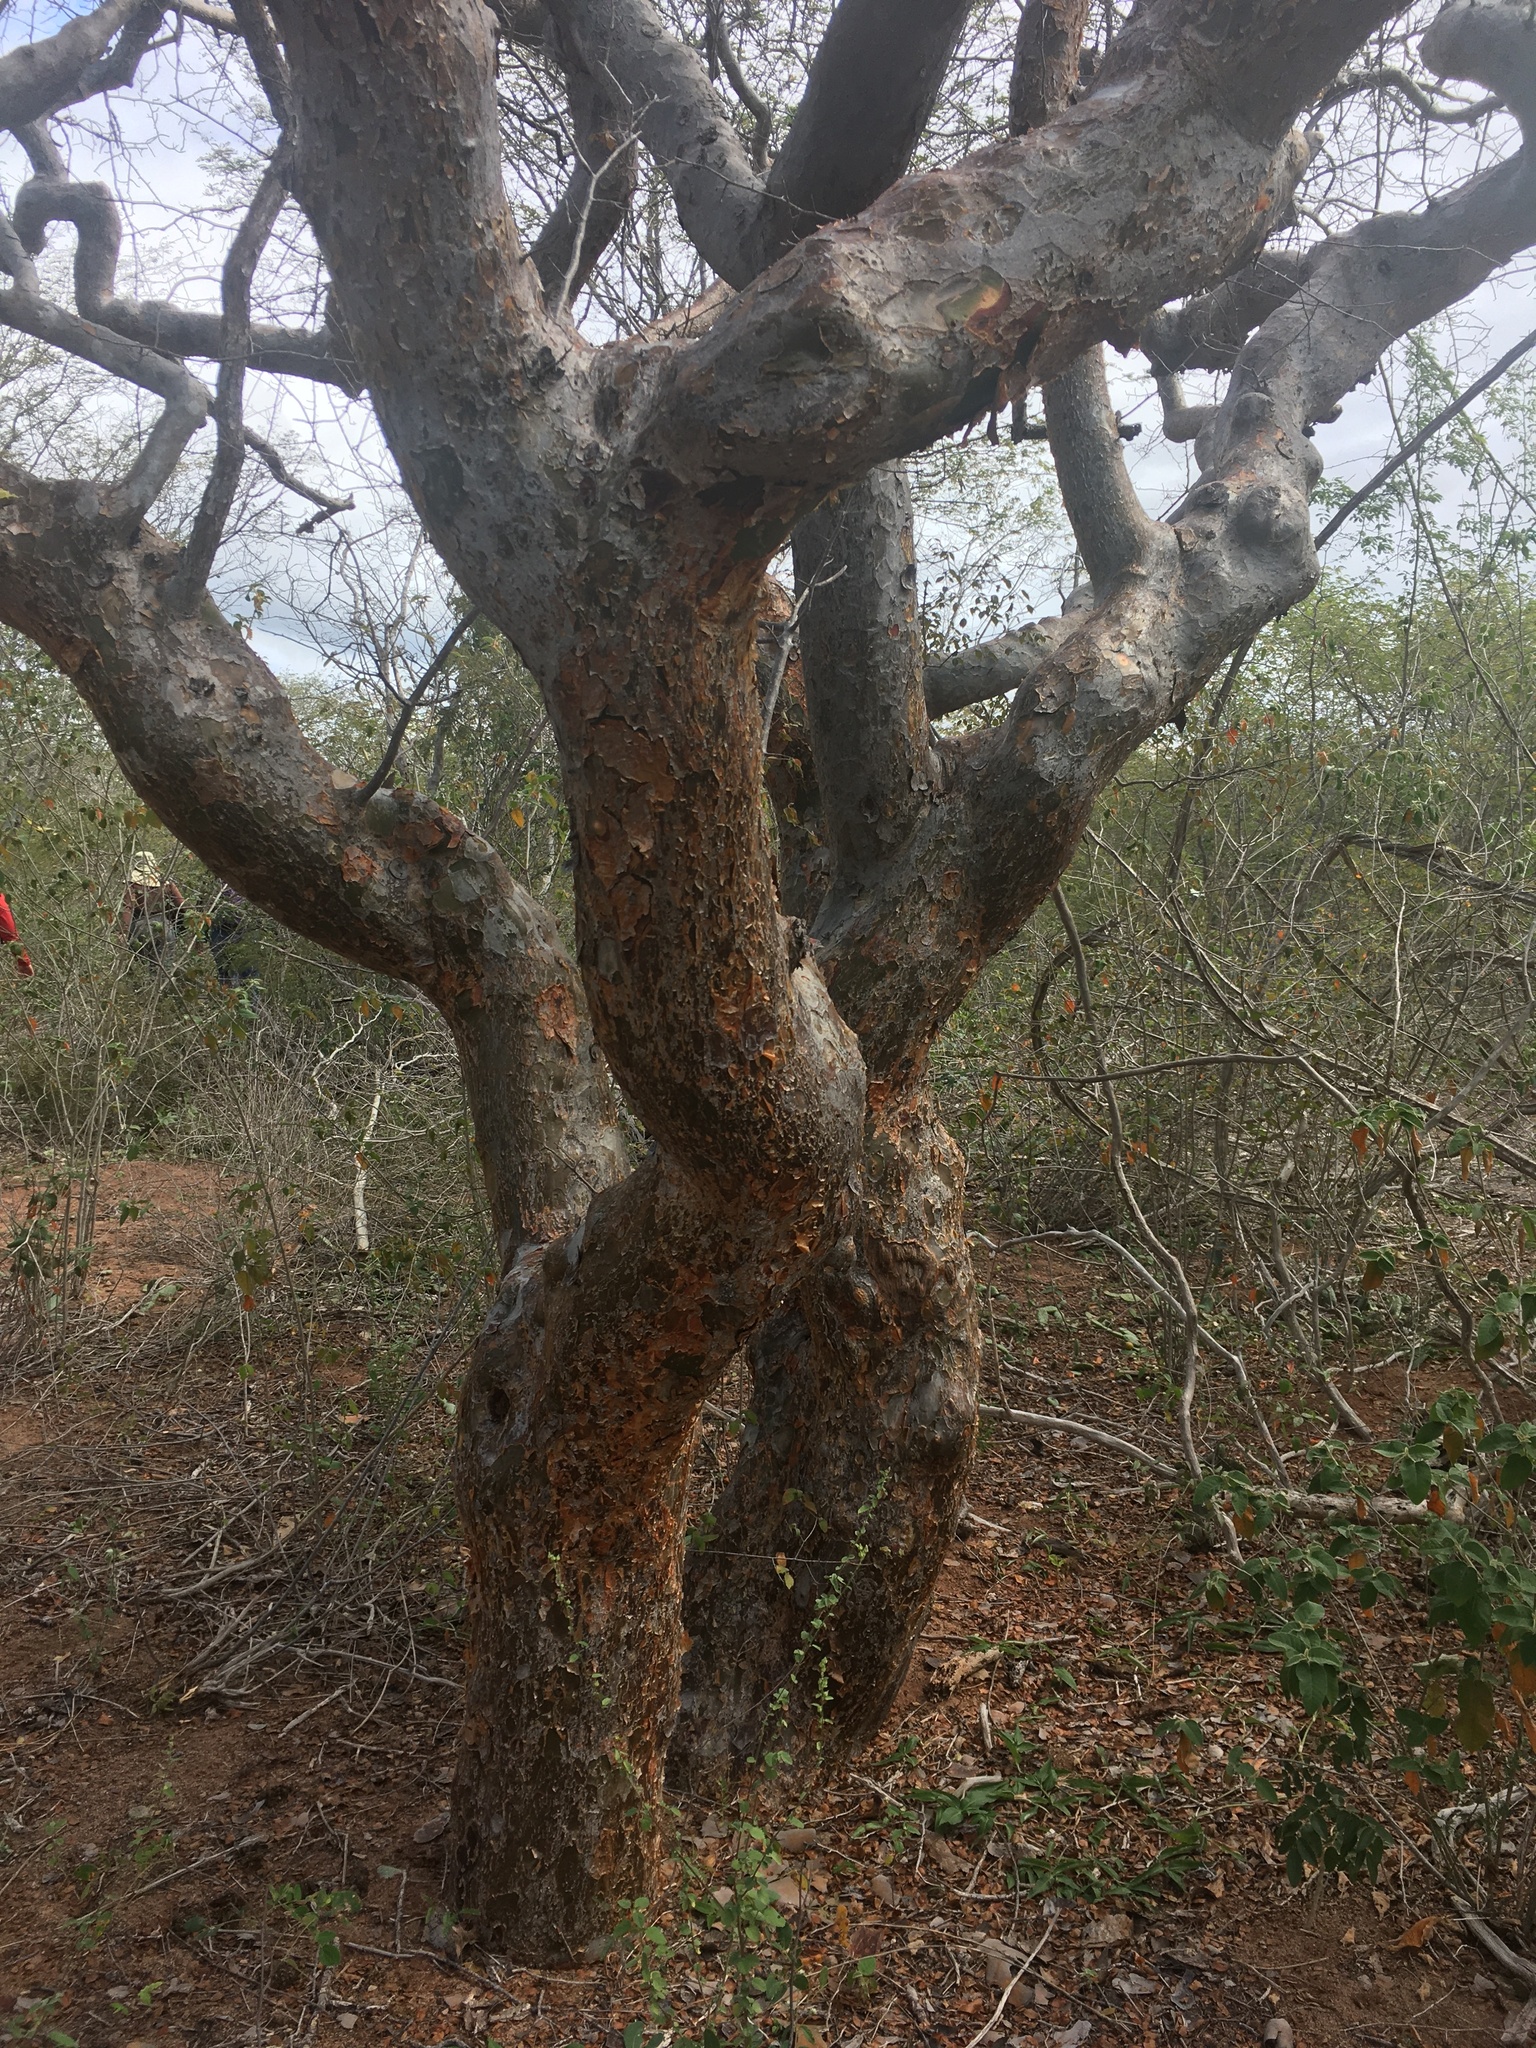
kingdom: Plantae
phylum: Tracheophyta
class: Magnoliopsida
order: Sapindales
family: Burseraceae
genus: Bursera
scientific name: Bursera leptophloeos
